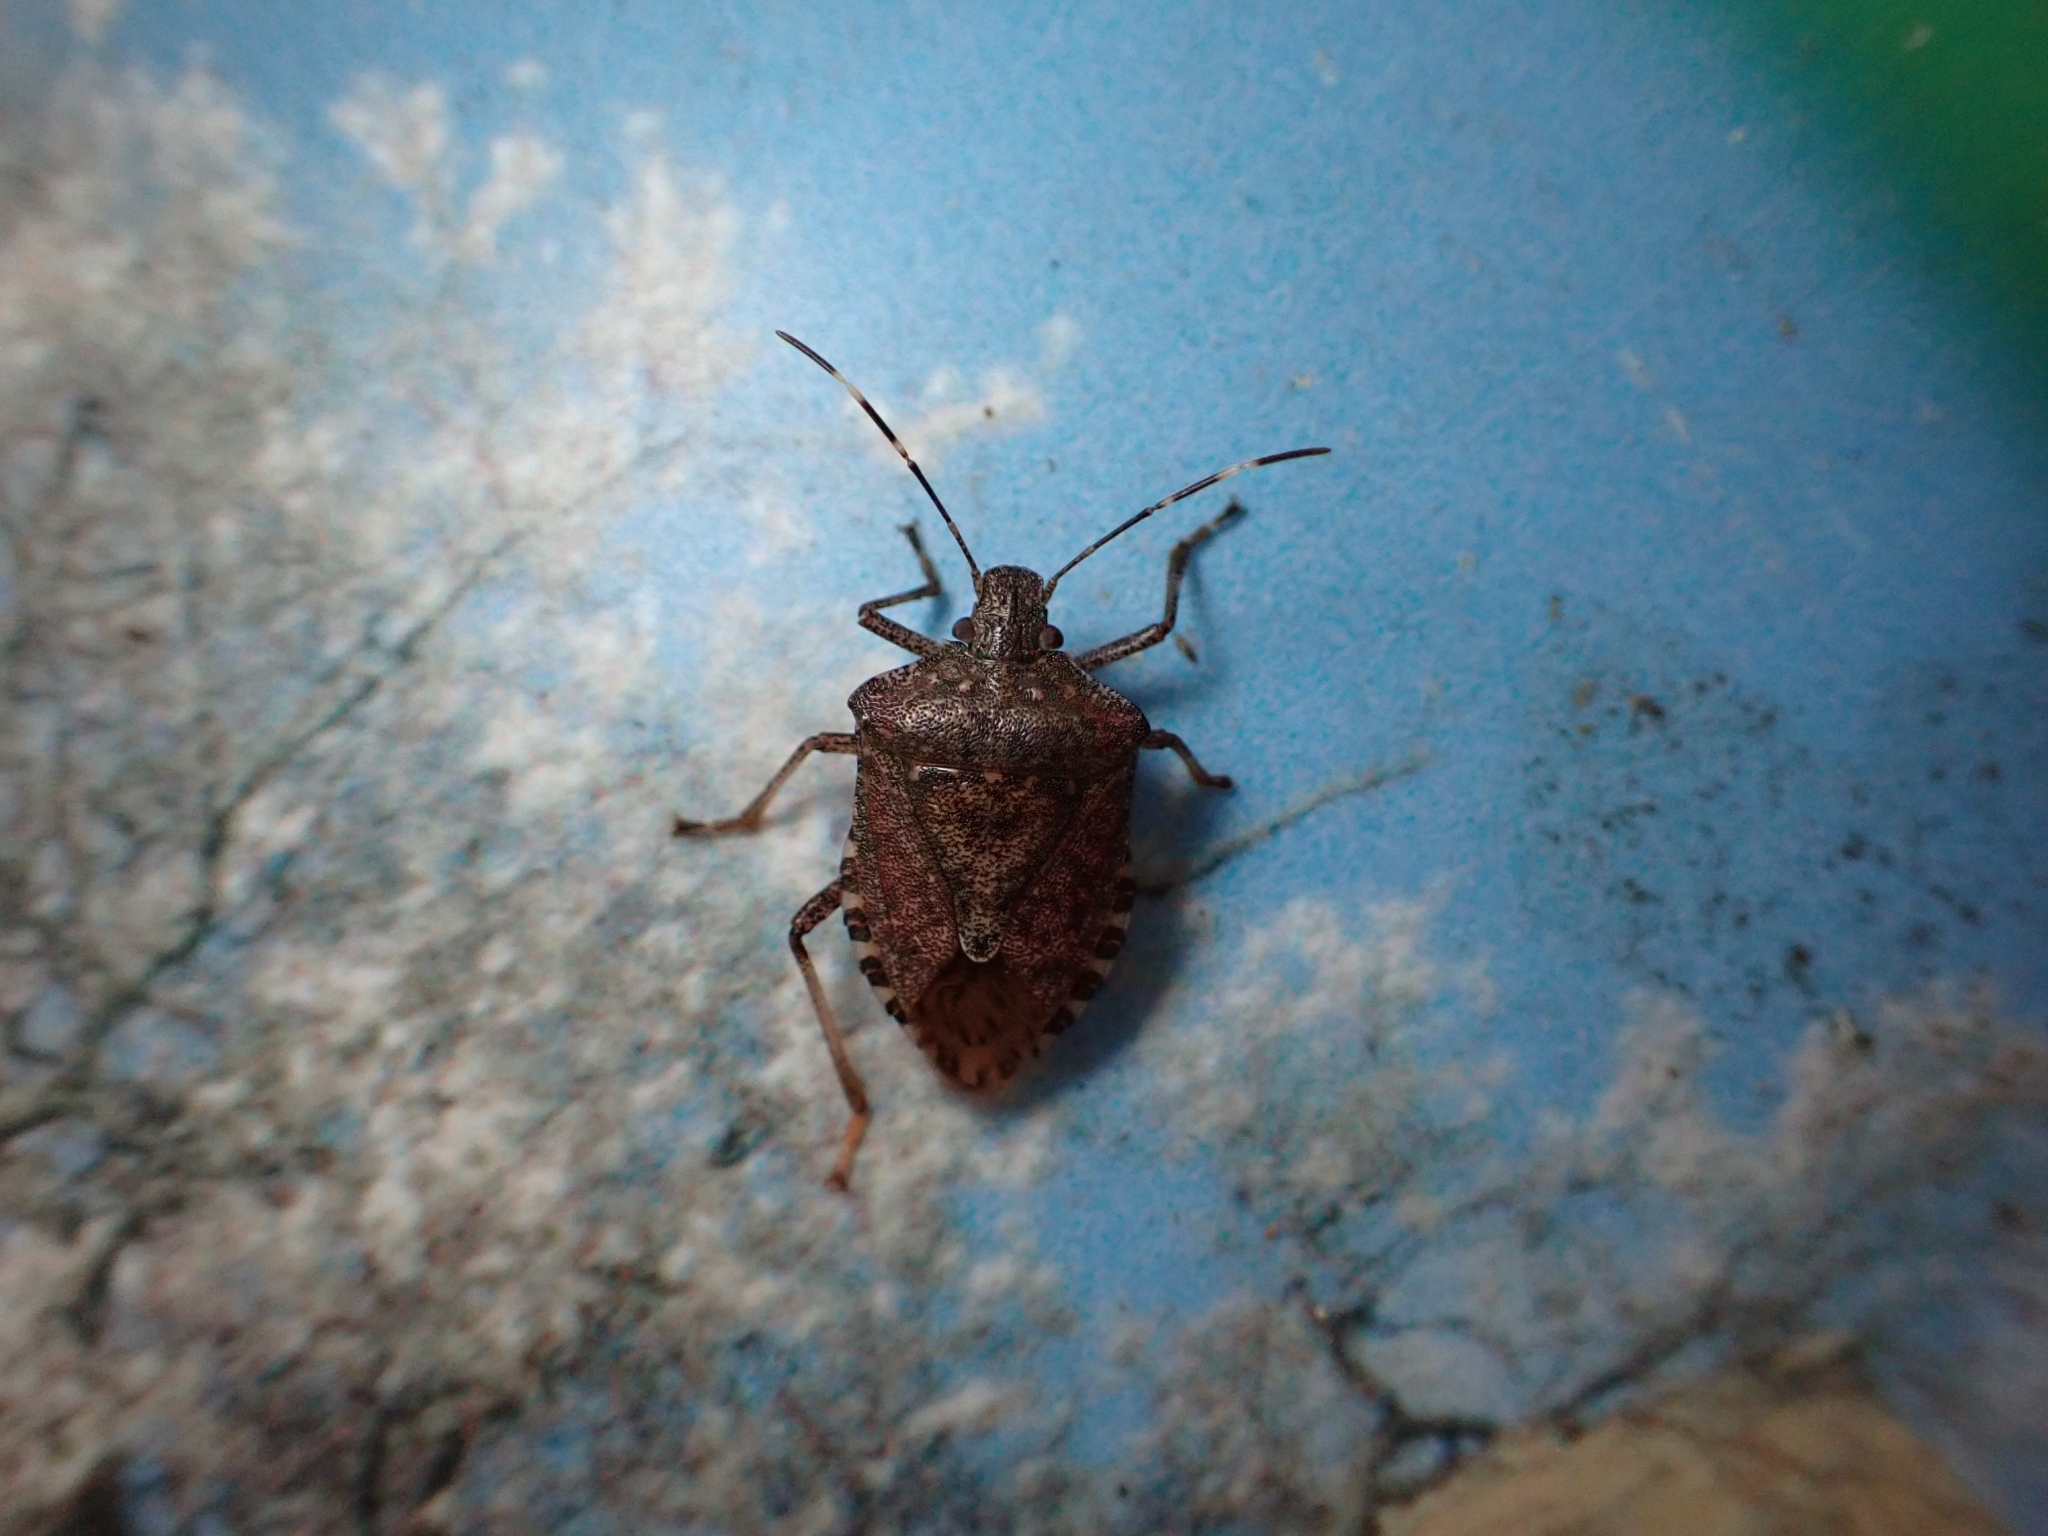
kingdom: Animalia
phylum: Arthropoda
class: Insecta
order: Hemiptera
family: Pentatomidae
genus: Halyomorpha
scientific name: Halyomorpha halys
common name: Brown marmorated stink bug
